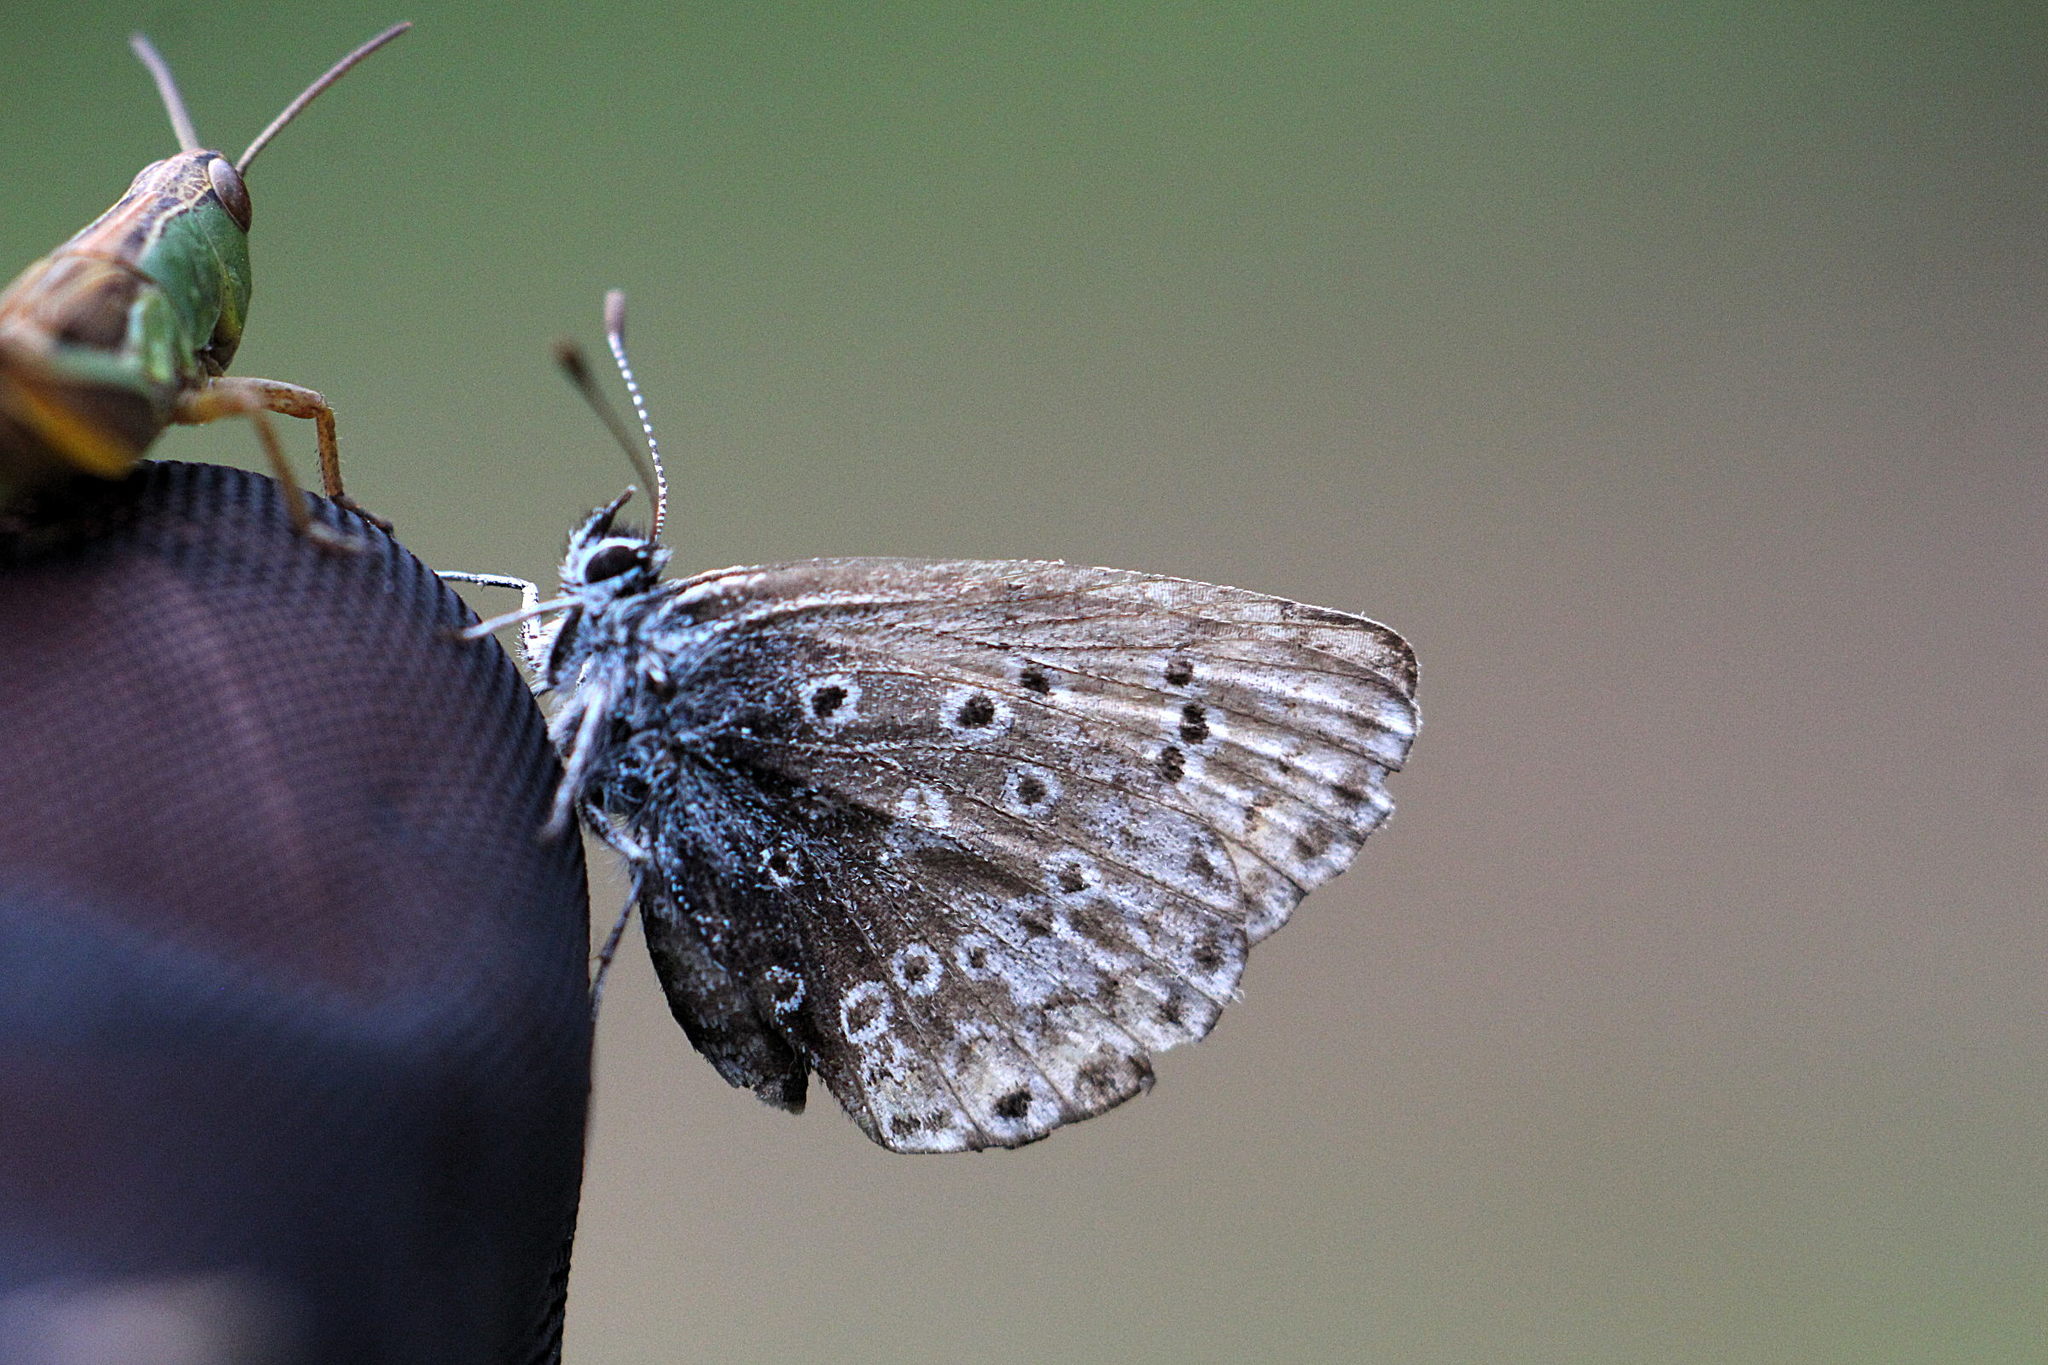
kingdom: Animalia
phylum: Arthropoda
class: Insecta
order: Lepidoptera
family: Lycaenidae
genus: Polyommatus
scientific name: Polyommatus icarus
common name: Common blue
